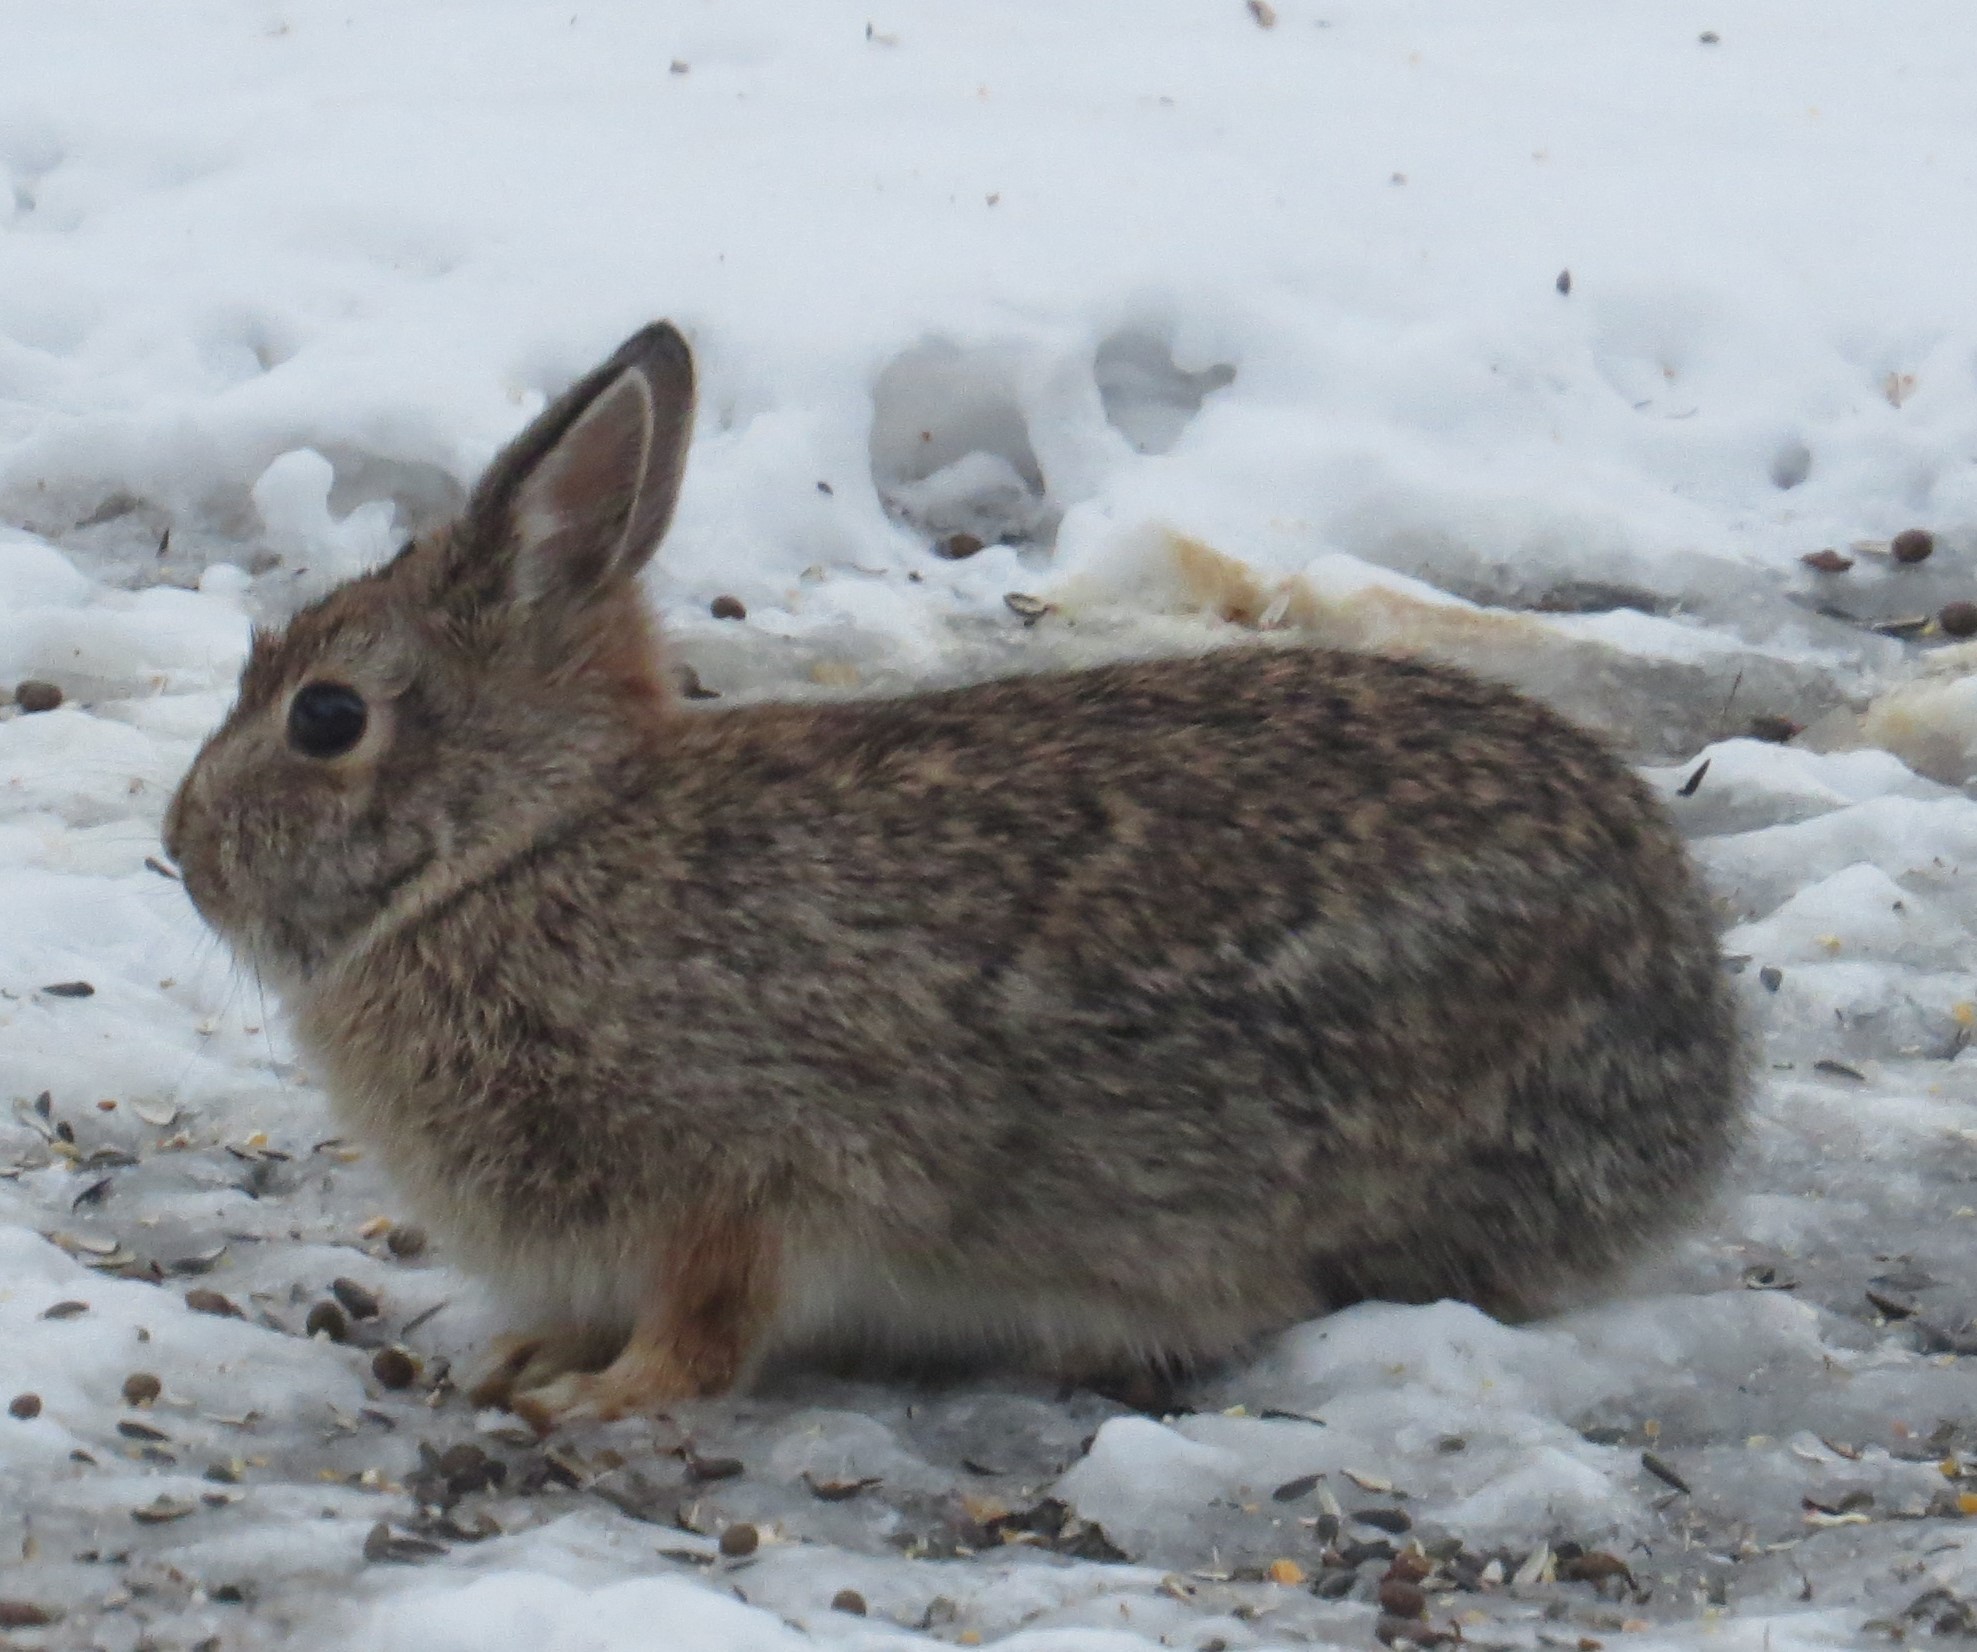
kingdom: Animalia
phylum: Chordata
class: Mammalia
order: Lagomorpha
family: Leporidae
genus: Sylvilagus
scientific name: Sylvilagus floridanus
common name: Eastern cottontail
